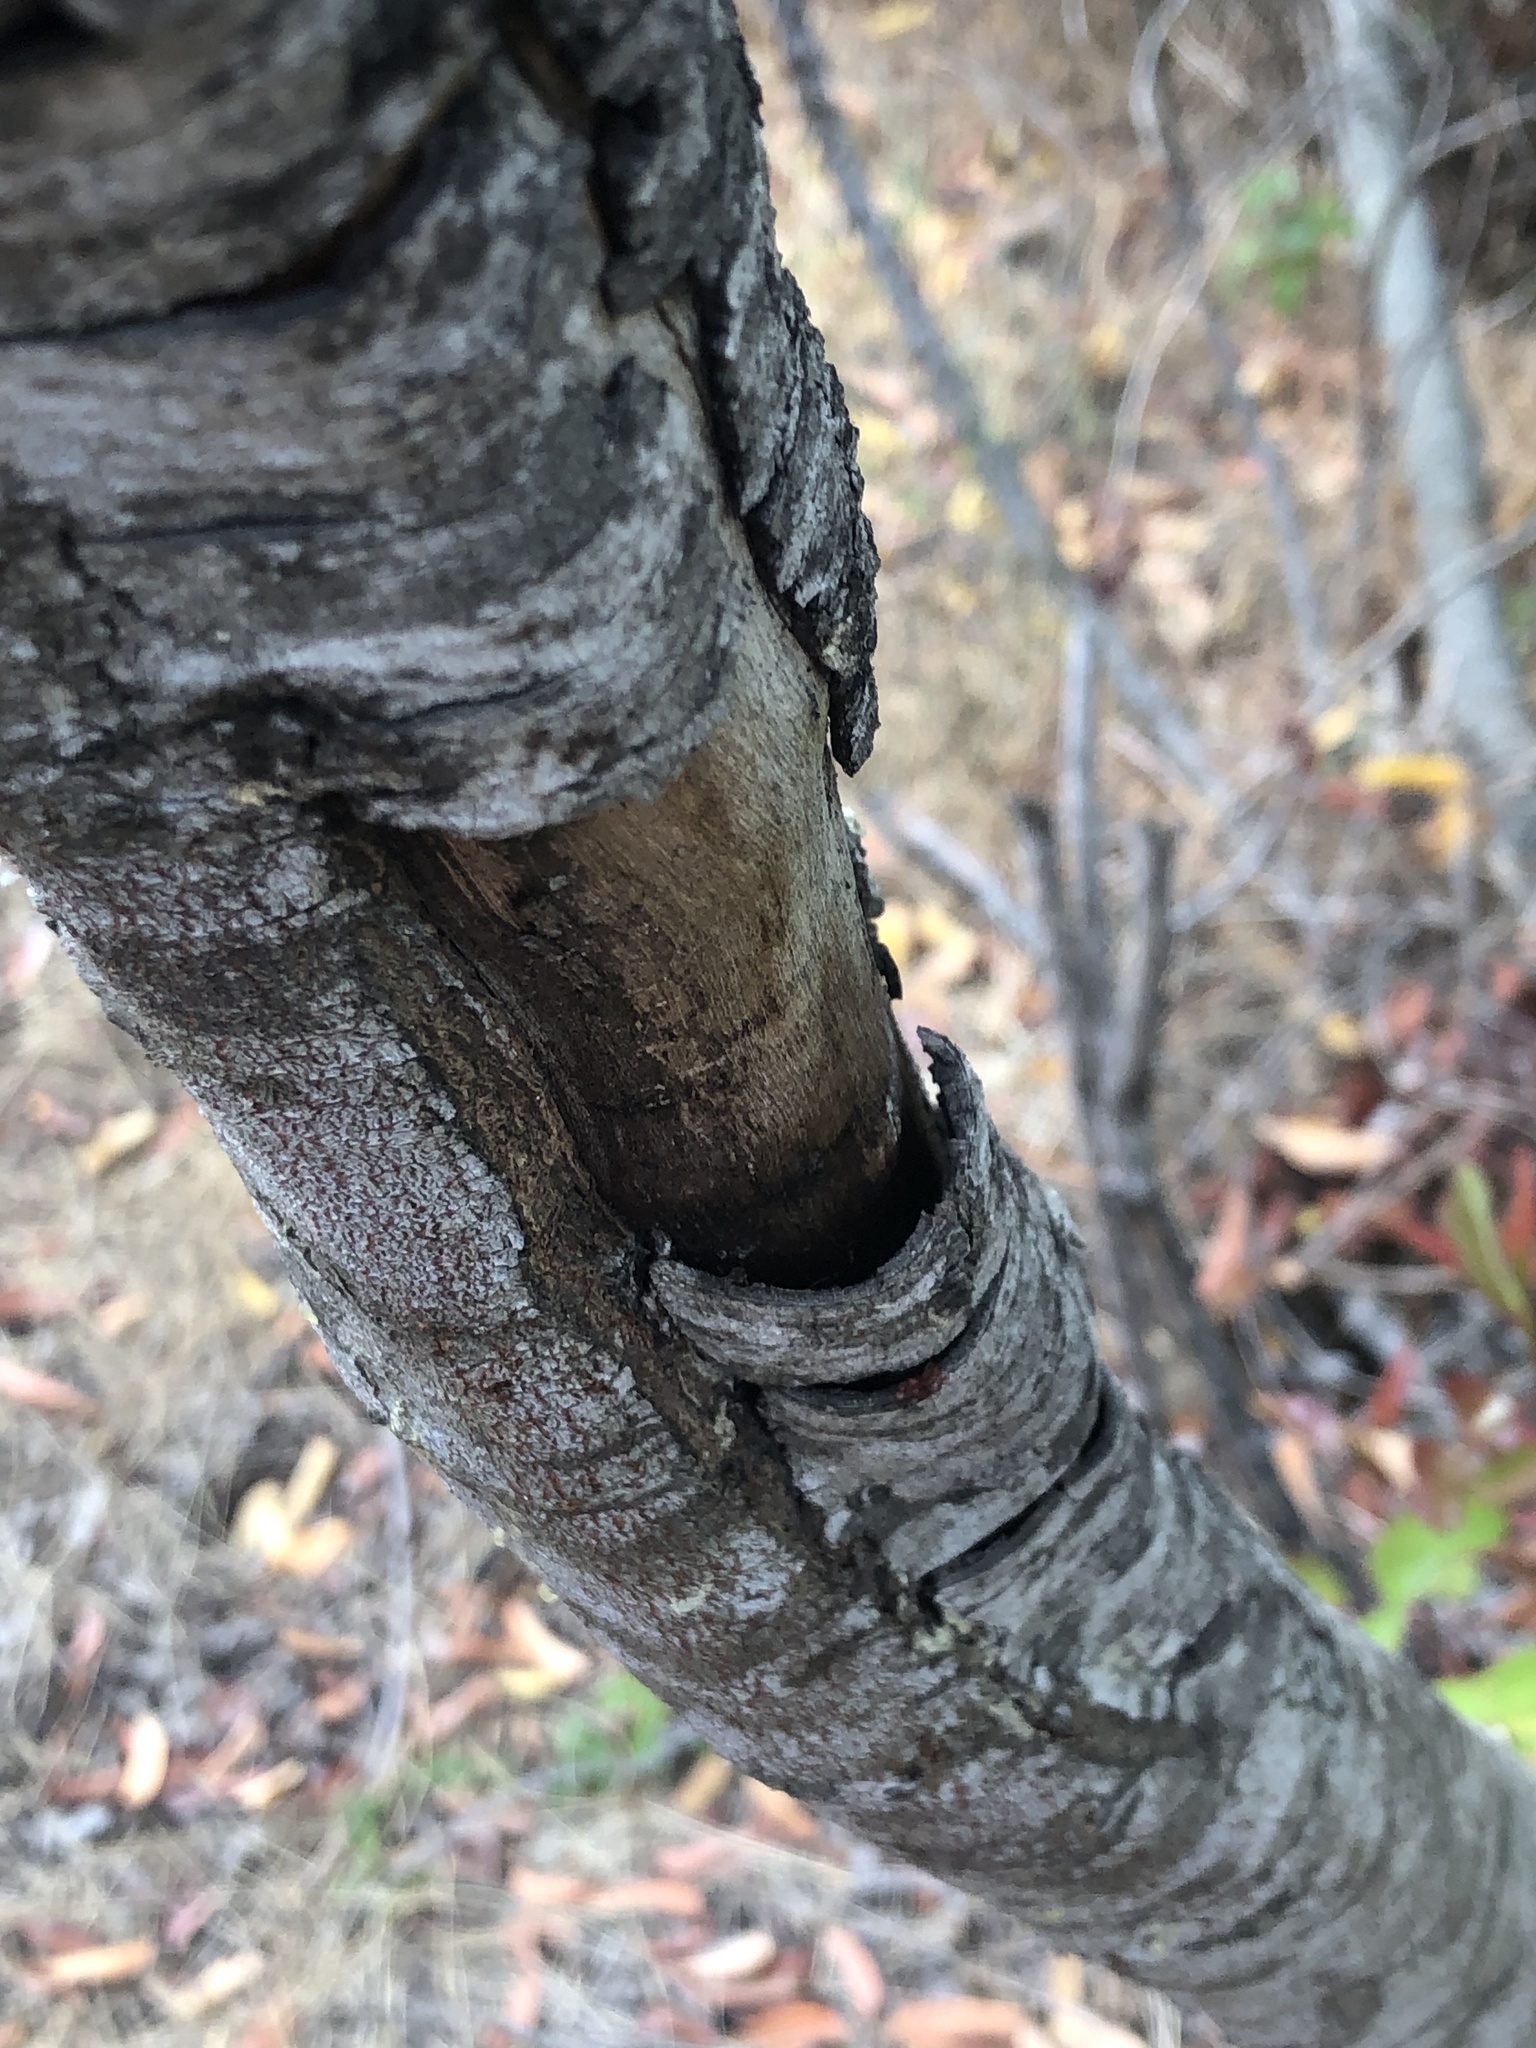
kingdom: Plantae
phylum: Tracheophyta
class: Magnoliopsida
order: Sapindales
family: Anacardiaceae
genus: Malosma
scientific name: Malosma laurina
